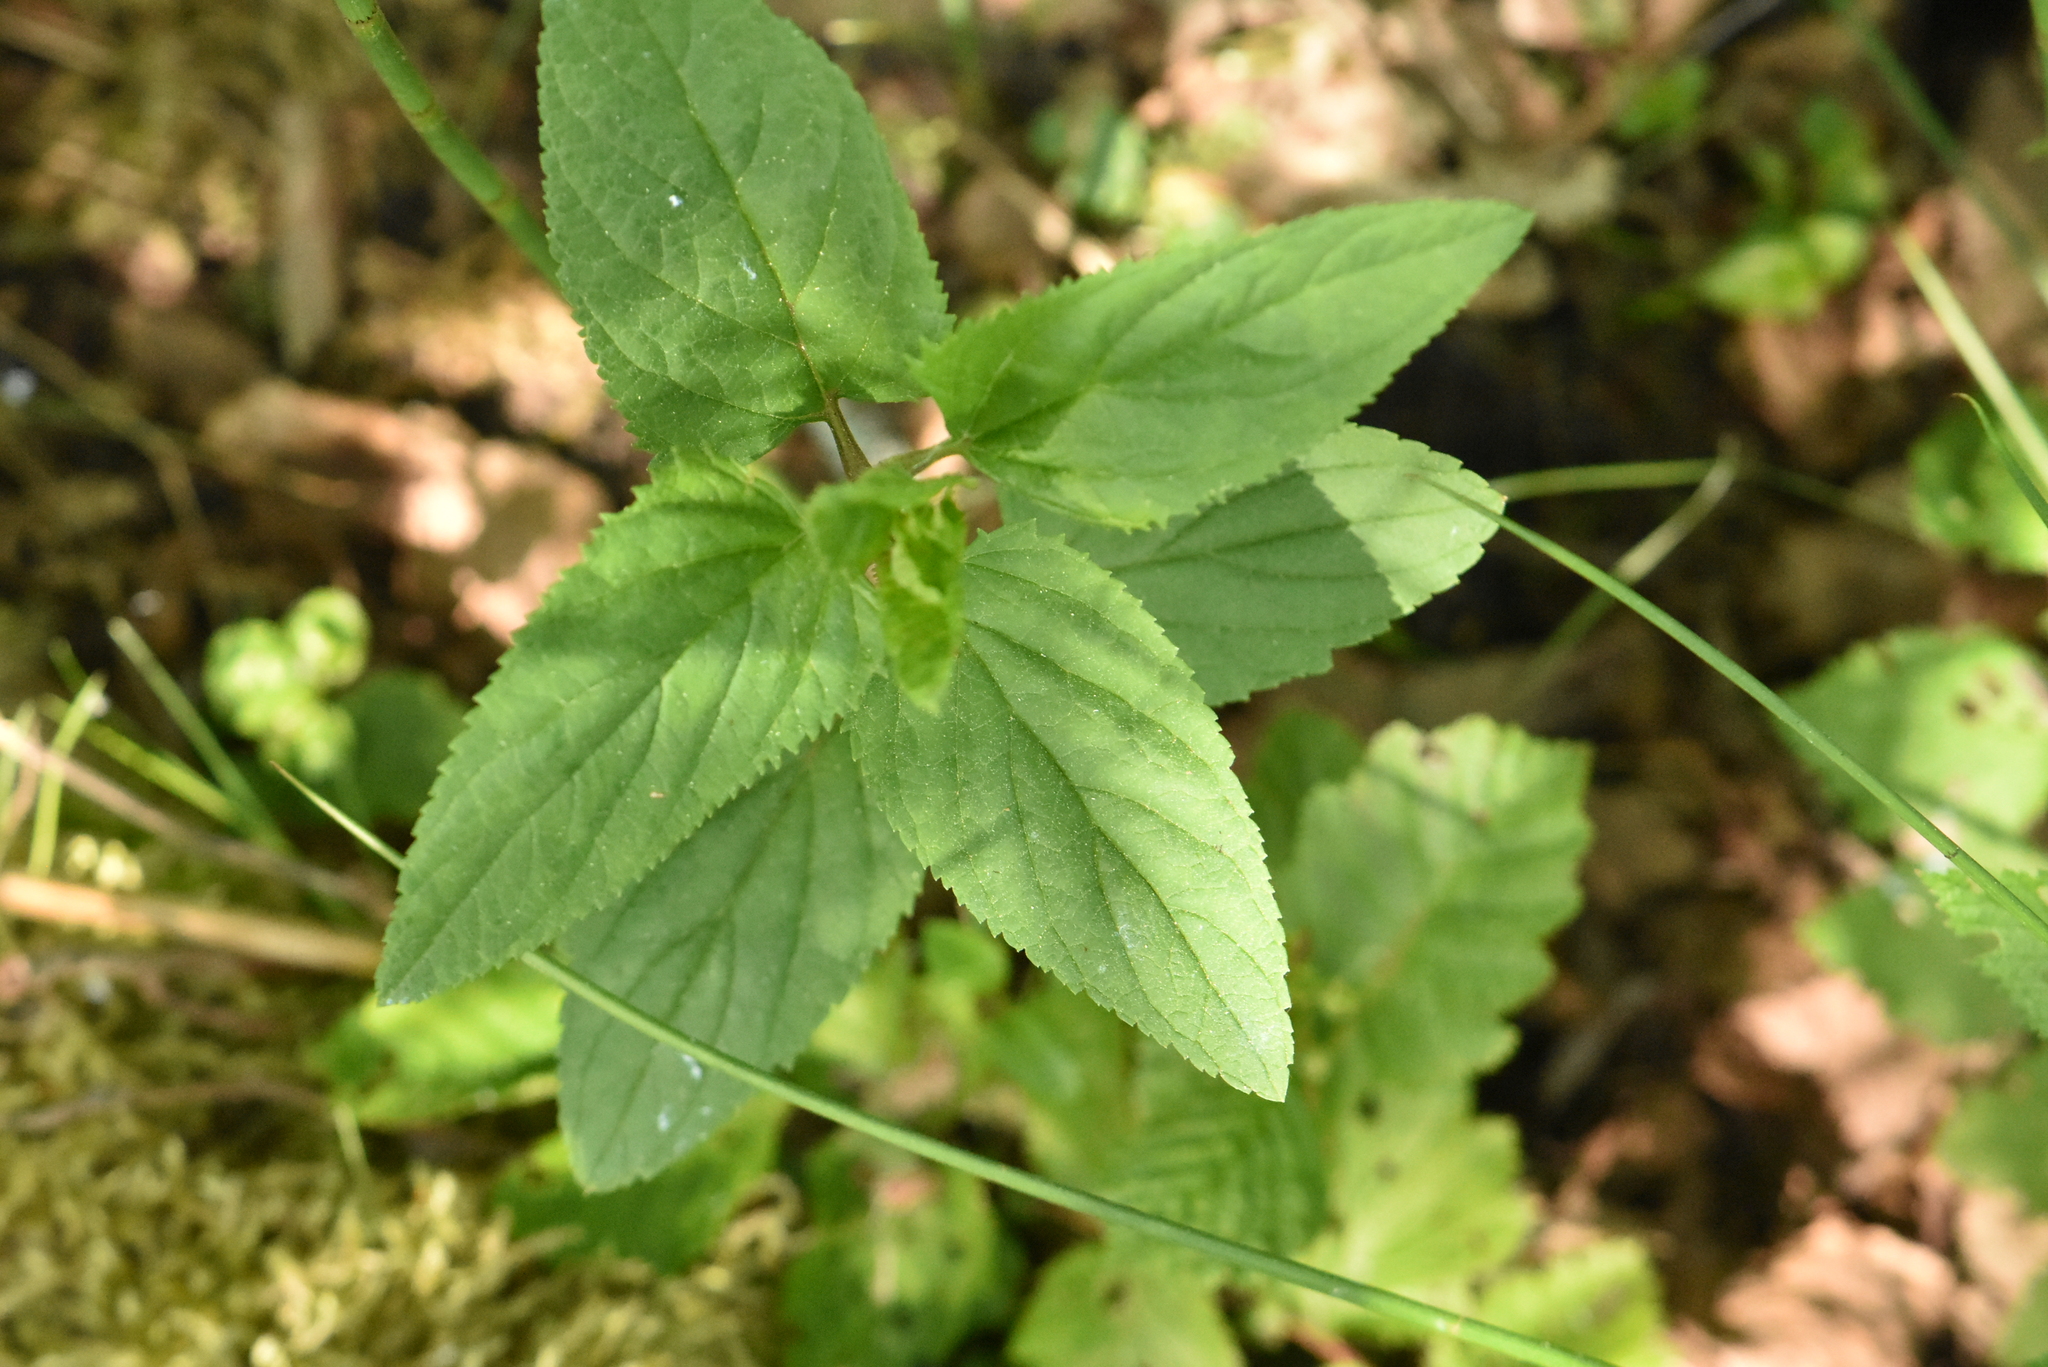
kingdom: Plantae
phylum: Tracheophyta
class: Magnoliopsida
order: Lamiales
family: Scrophulariaceae
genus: Scrophularia
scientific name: Scrophularia nodosa
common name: Common figwort
